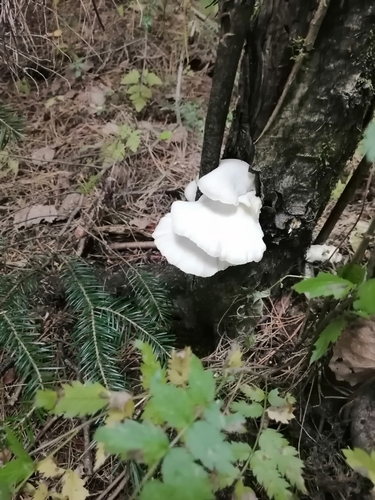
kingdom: Fungi
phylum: Basidiomycota
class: Agaricomycetes
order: Agaricales
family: Pleurotaceae
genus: Pleurotus
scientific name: Pleurotus pulmonarius
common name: Pale oyster
